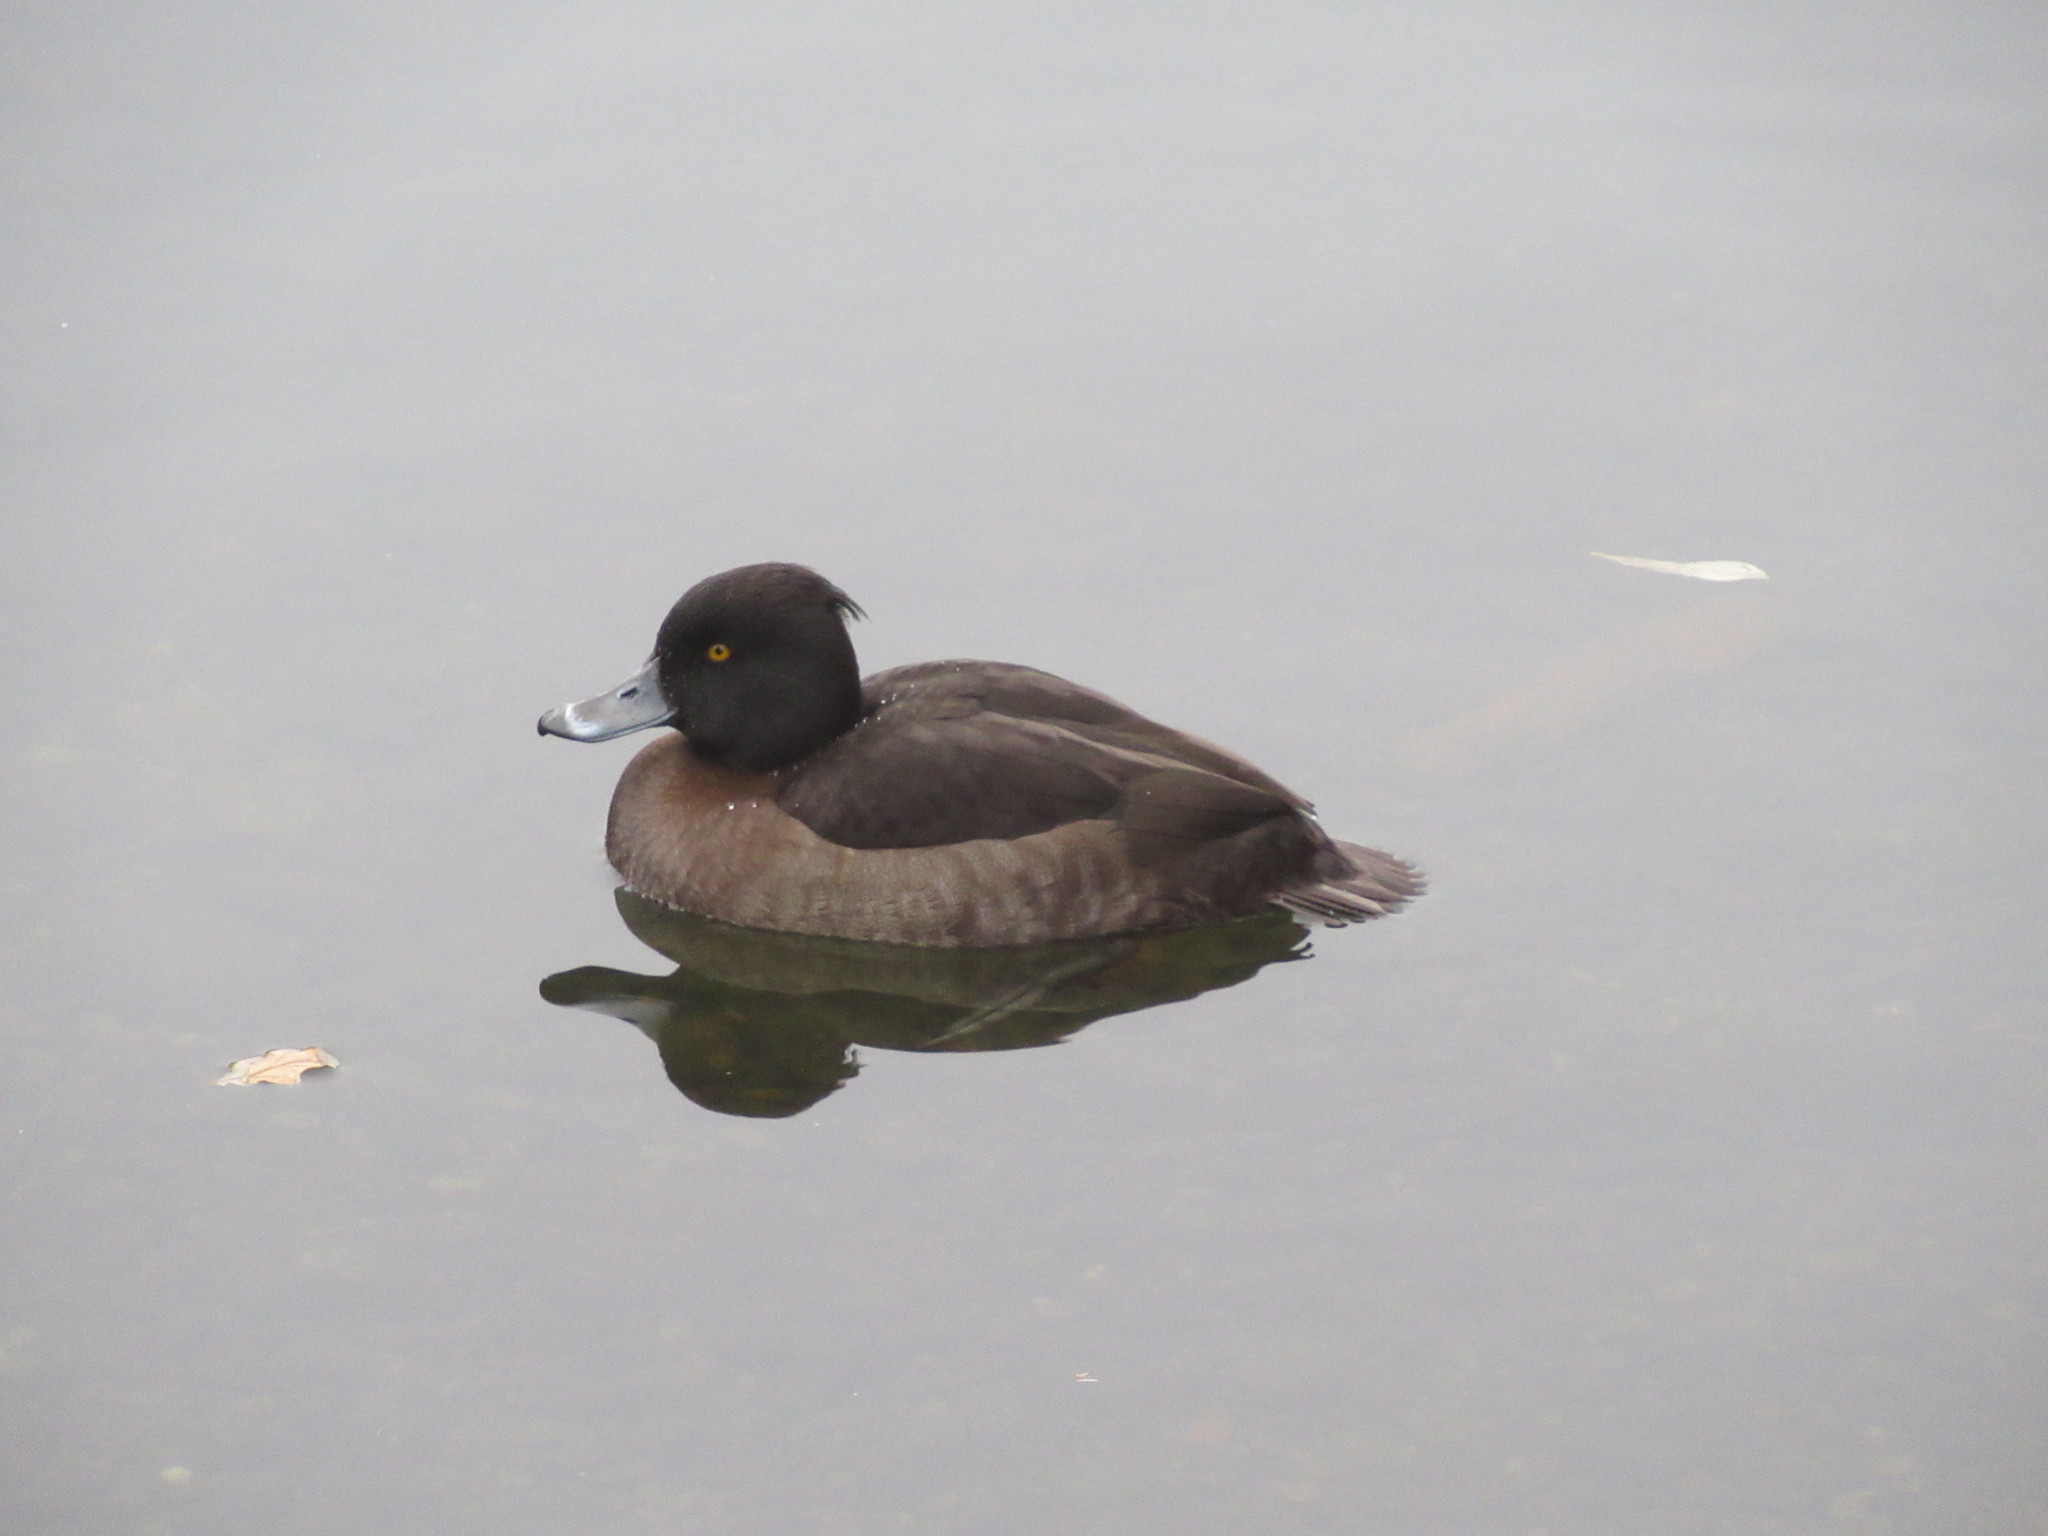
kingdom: Animalia
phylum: Chordata
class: Aves
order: Anseriformes
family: Anatidae
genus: Aythya
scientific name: Aythya fuligula
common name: Tufted duck
